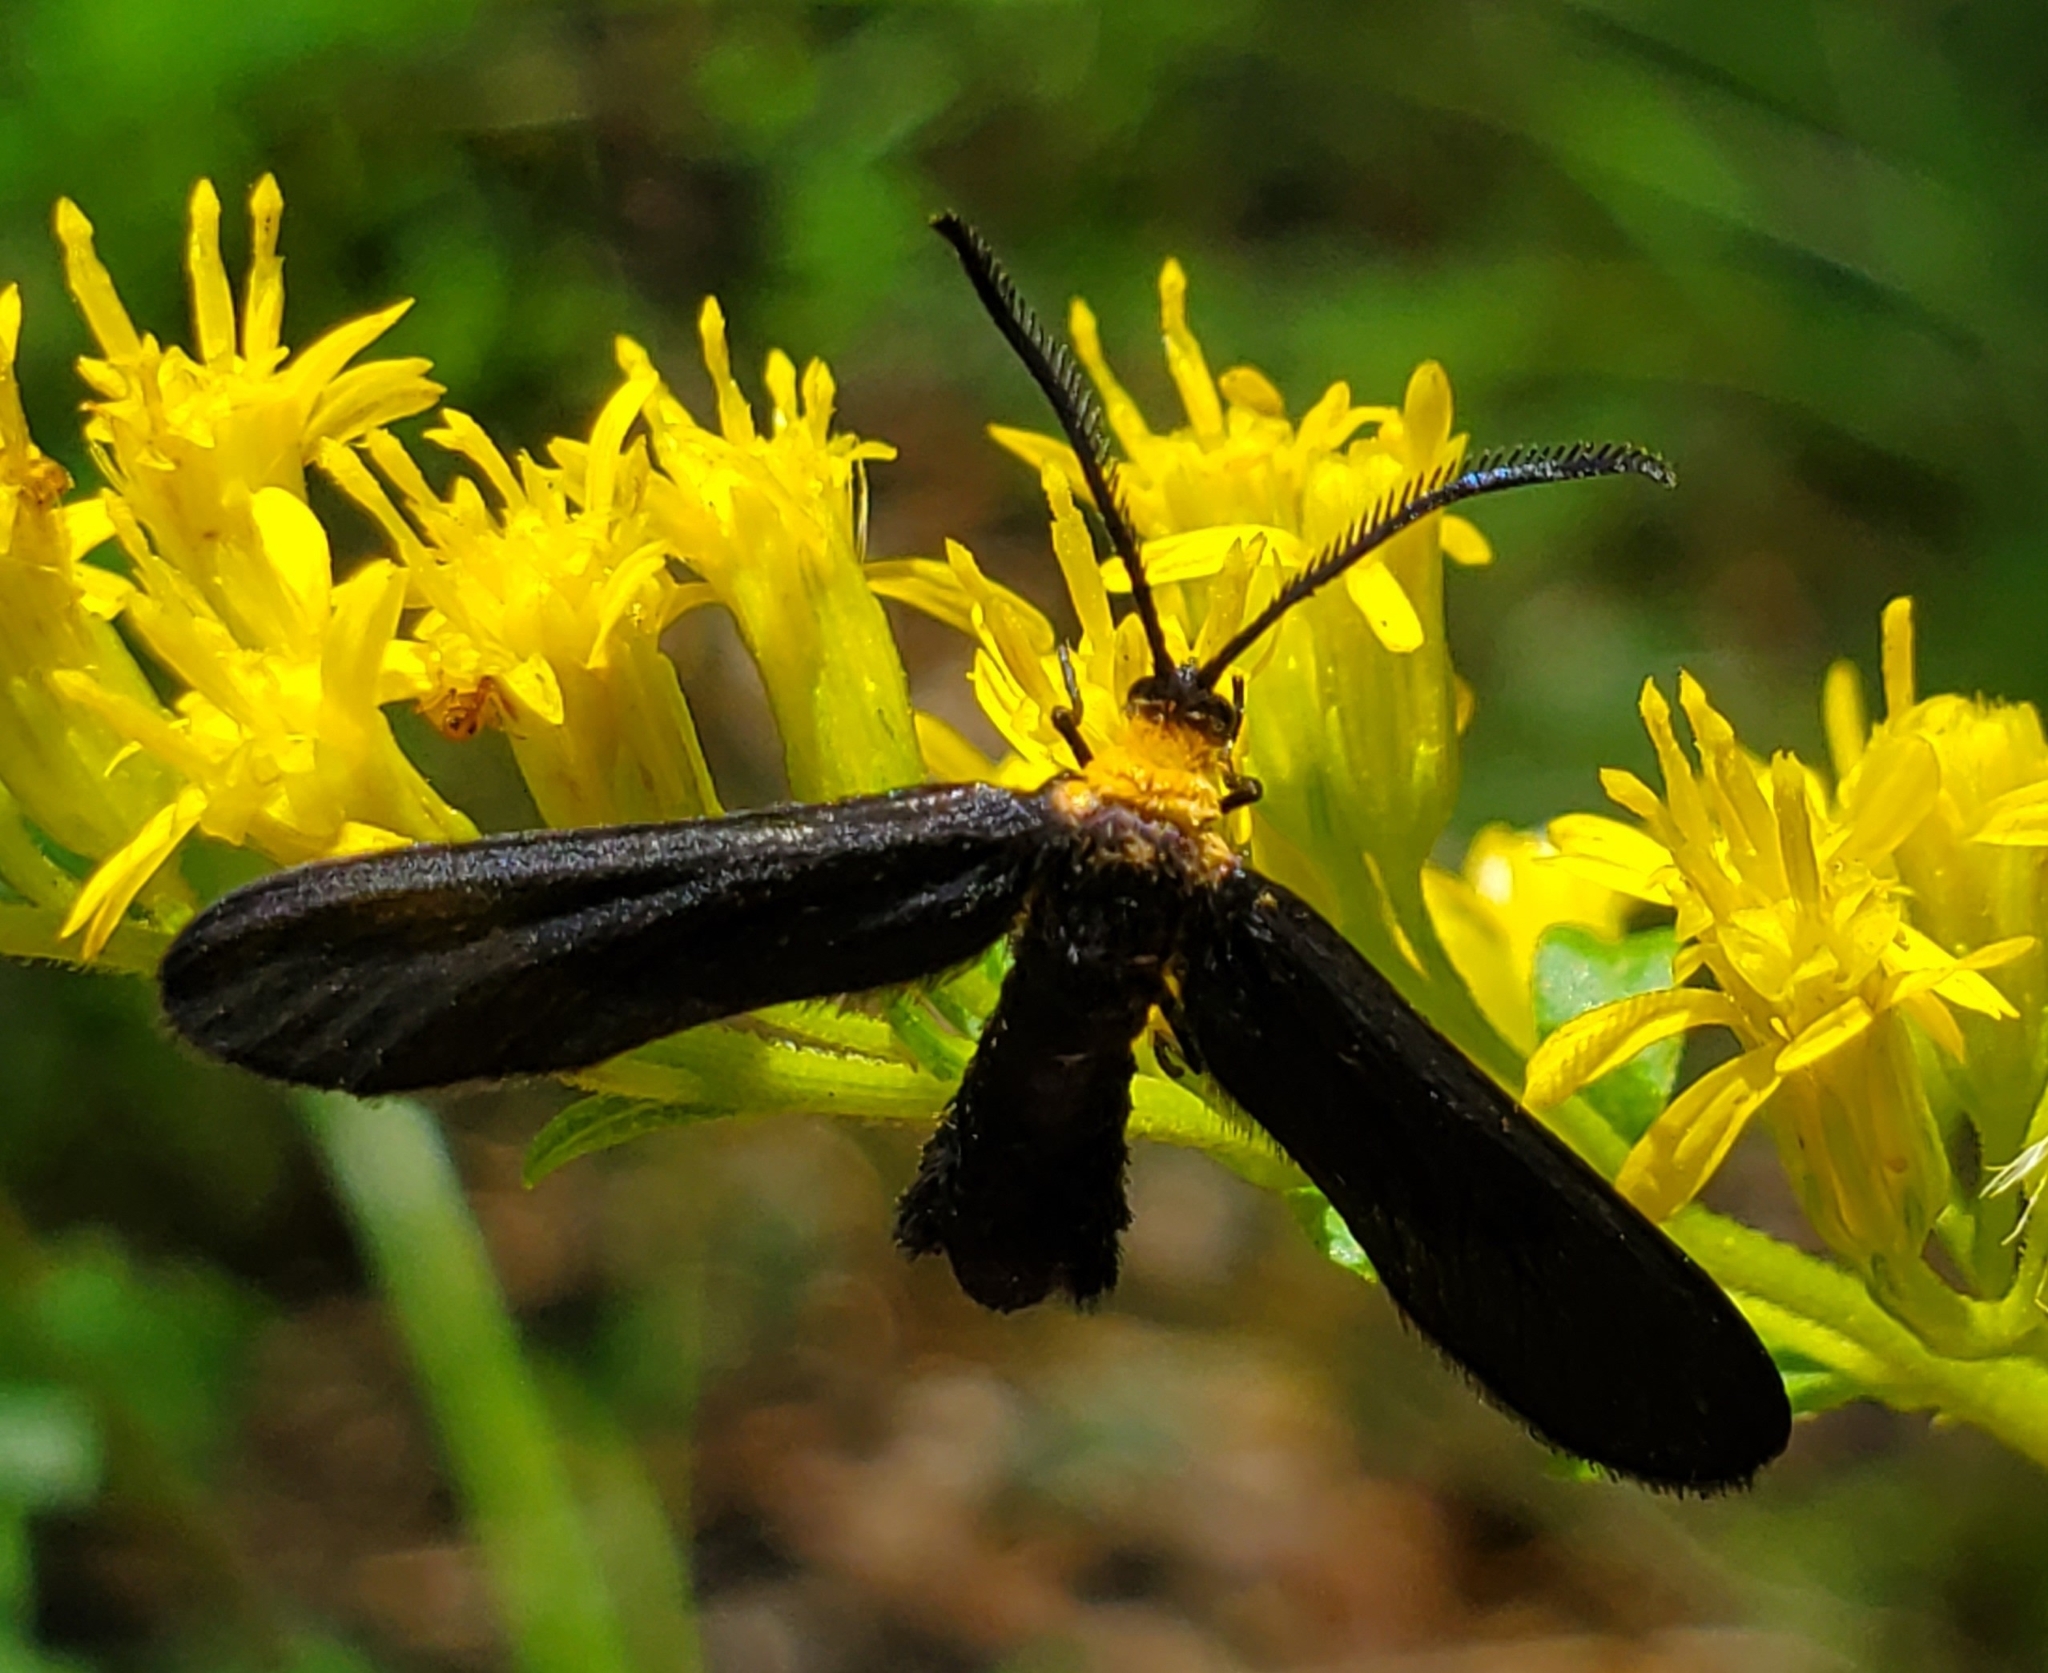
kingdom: Animalia
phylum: Arthropoda
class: Insecta
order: Lepidoptera
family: Zygaenidae
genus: Harrisina
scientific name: Harrisina americana
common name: Grapeleaf skeletonizer moth
